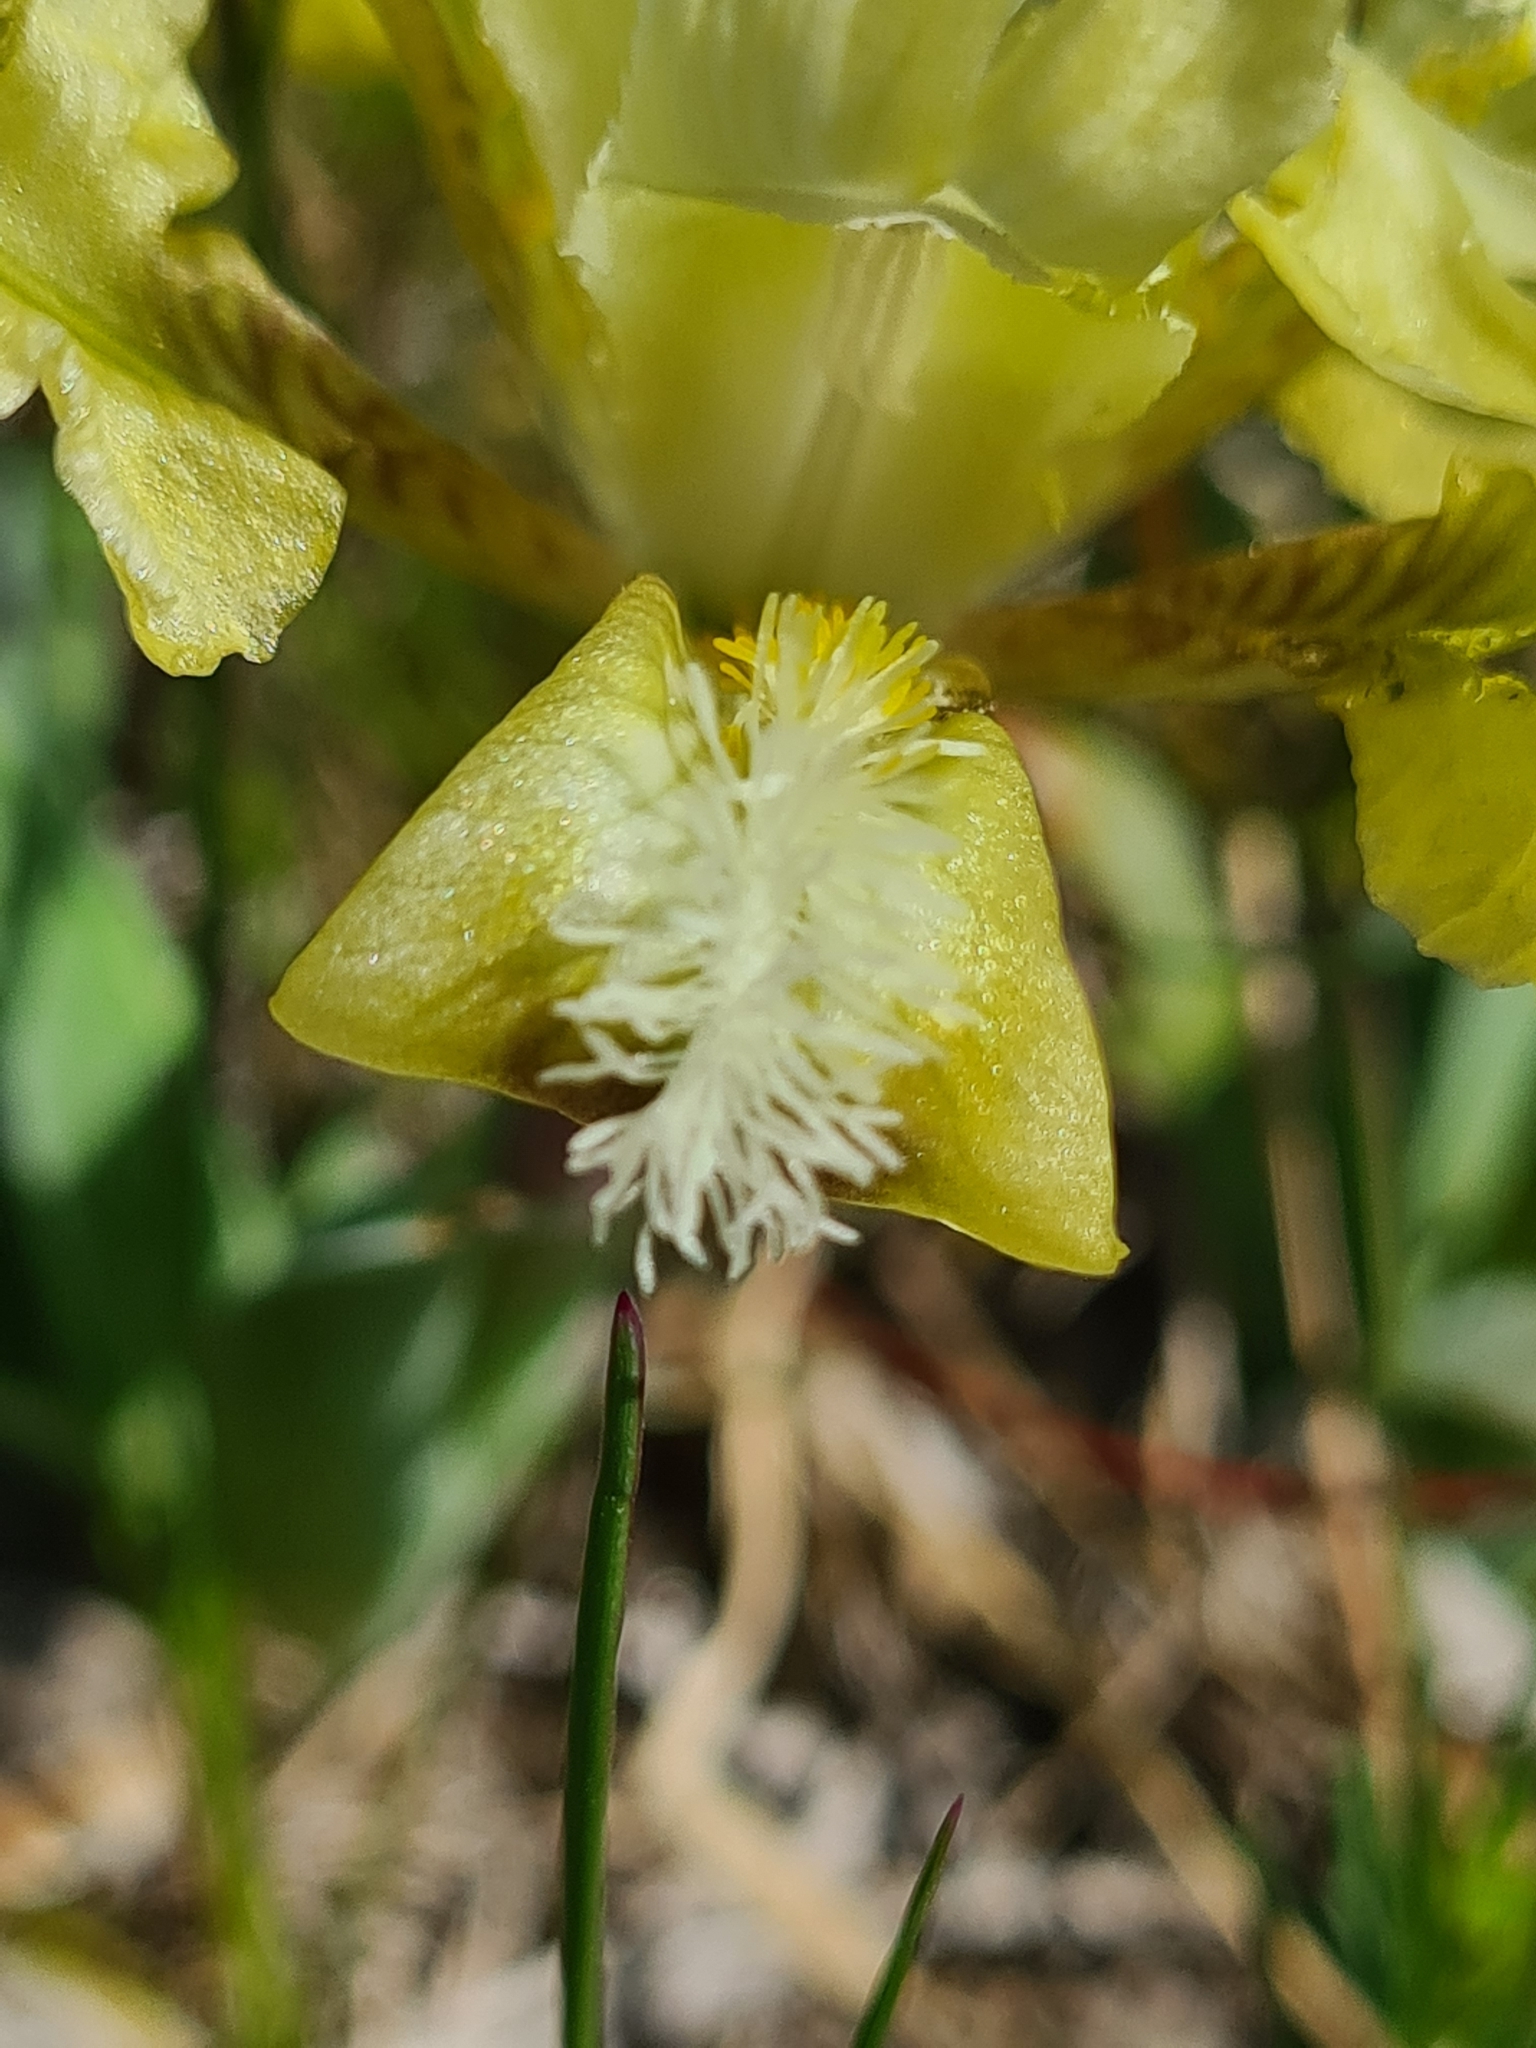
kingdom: Plantae
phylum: Tracheophyta
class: Liliopsida
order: Asparagales
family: Iridaceae
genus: Iris
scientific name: Iris pumila
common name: Dwarf iris
